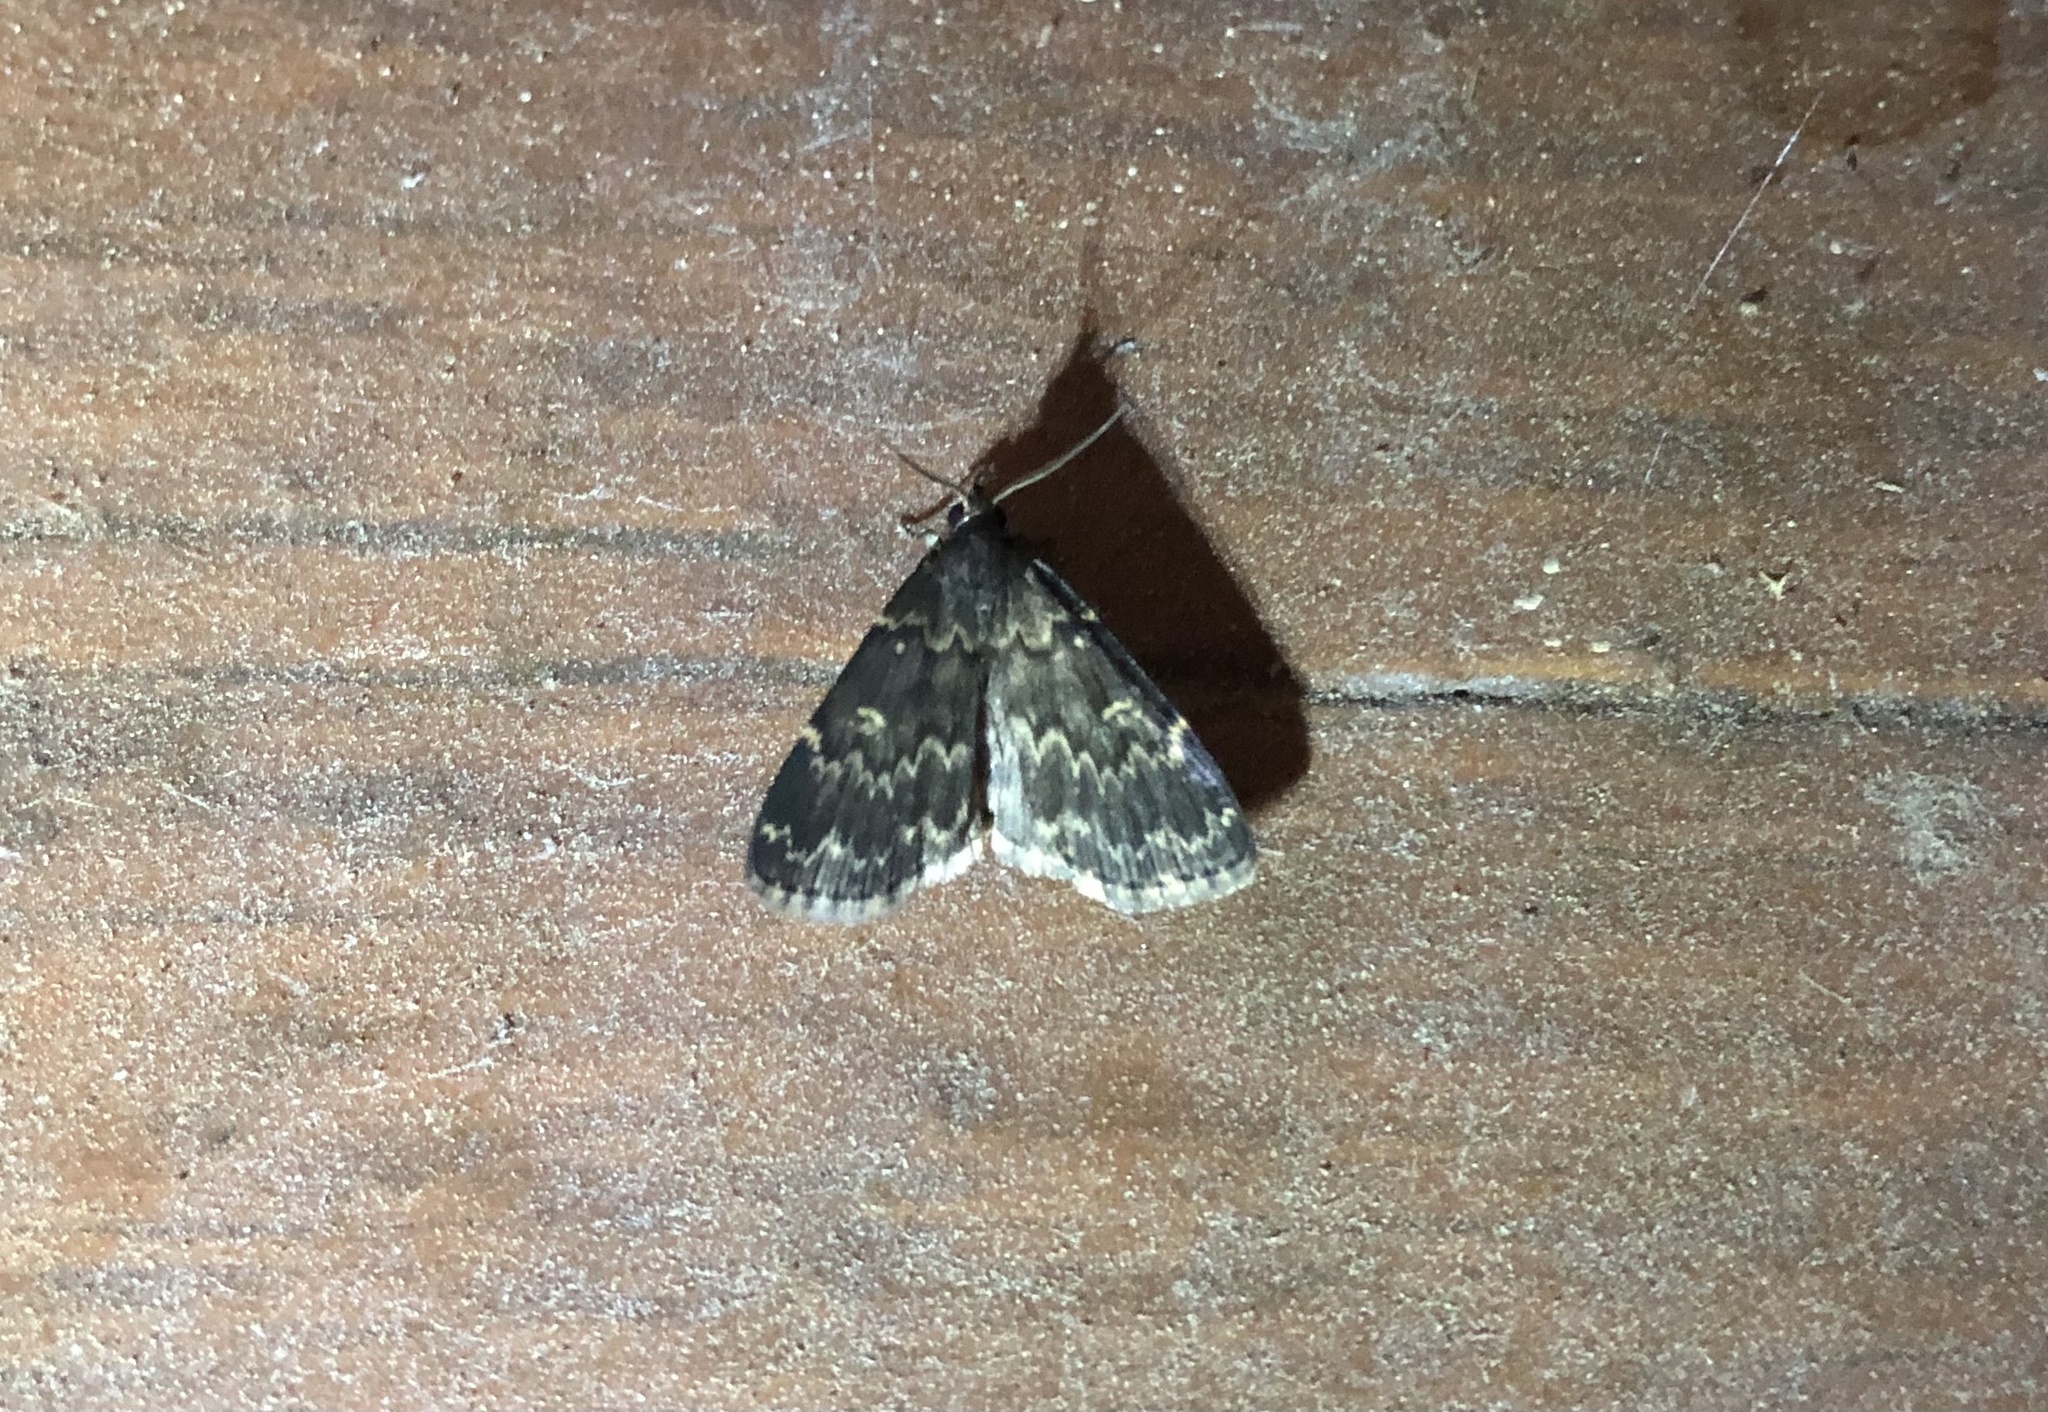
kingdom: Animalia
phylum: Arthropoda
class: Insecta
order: Lepidoptera
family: Erebidae
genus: Idia
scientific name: Idia lubricalis
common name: Twin-striped tabby
